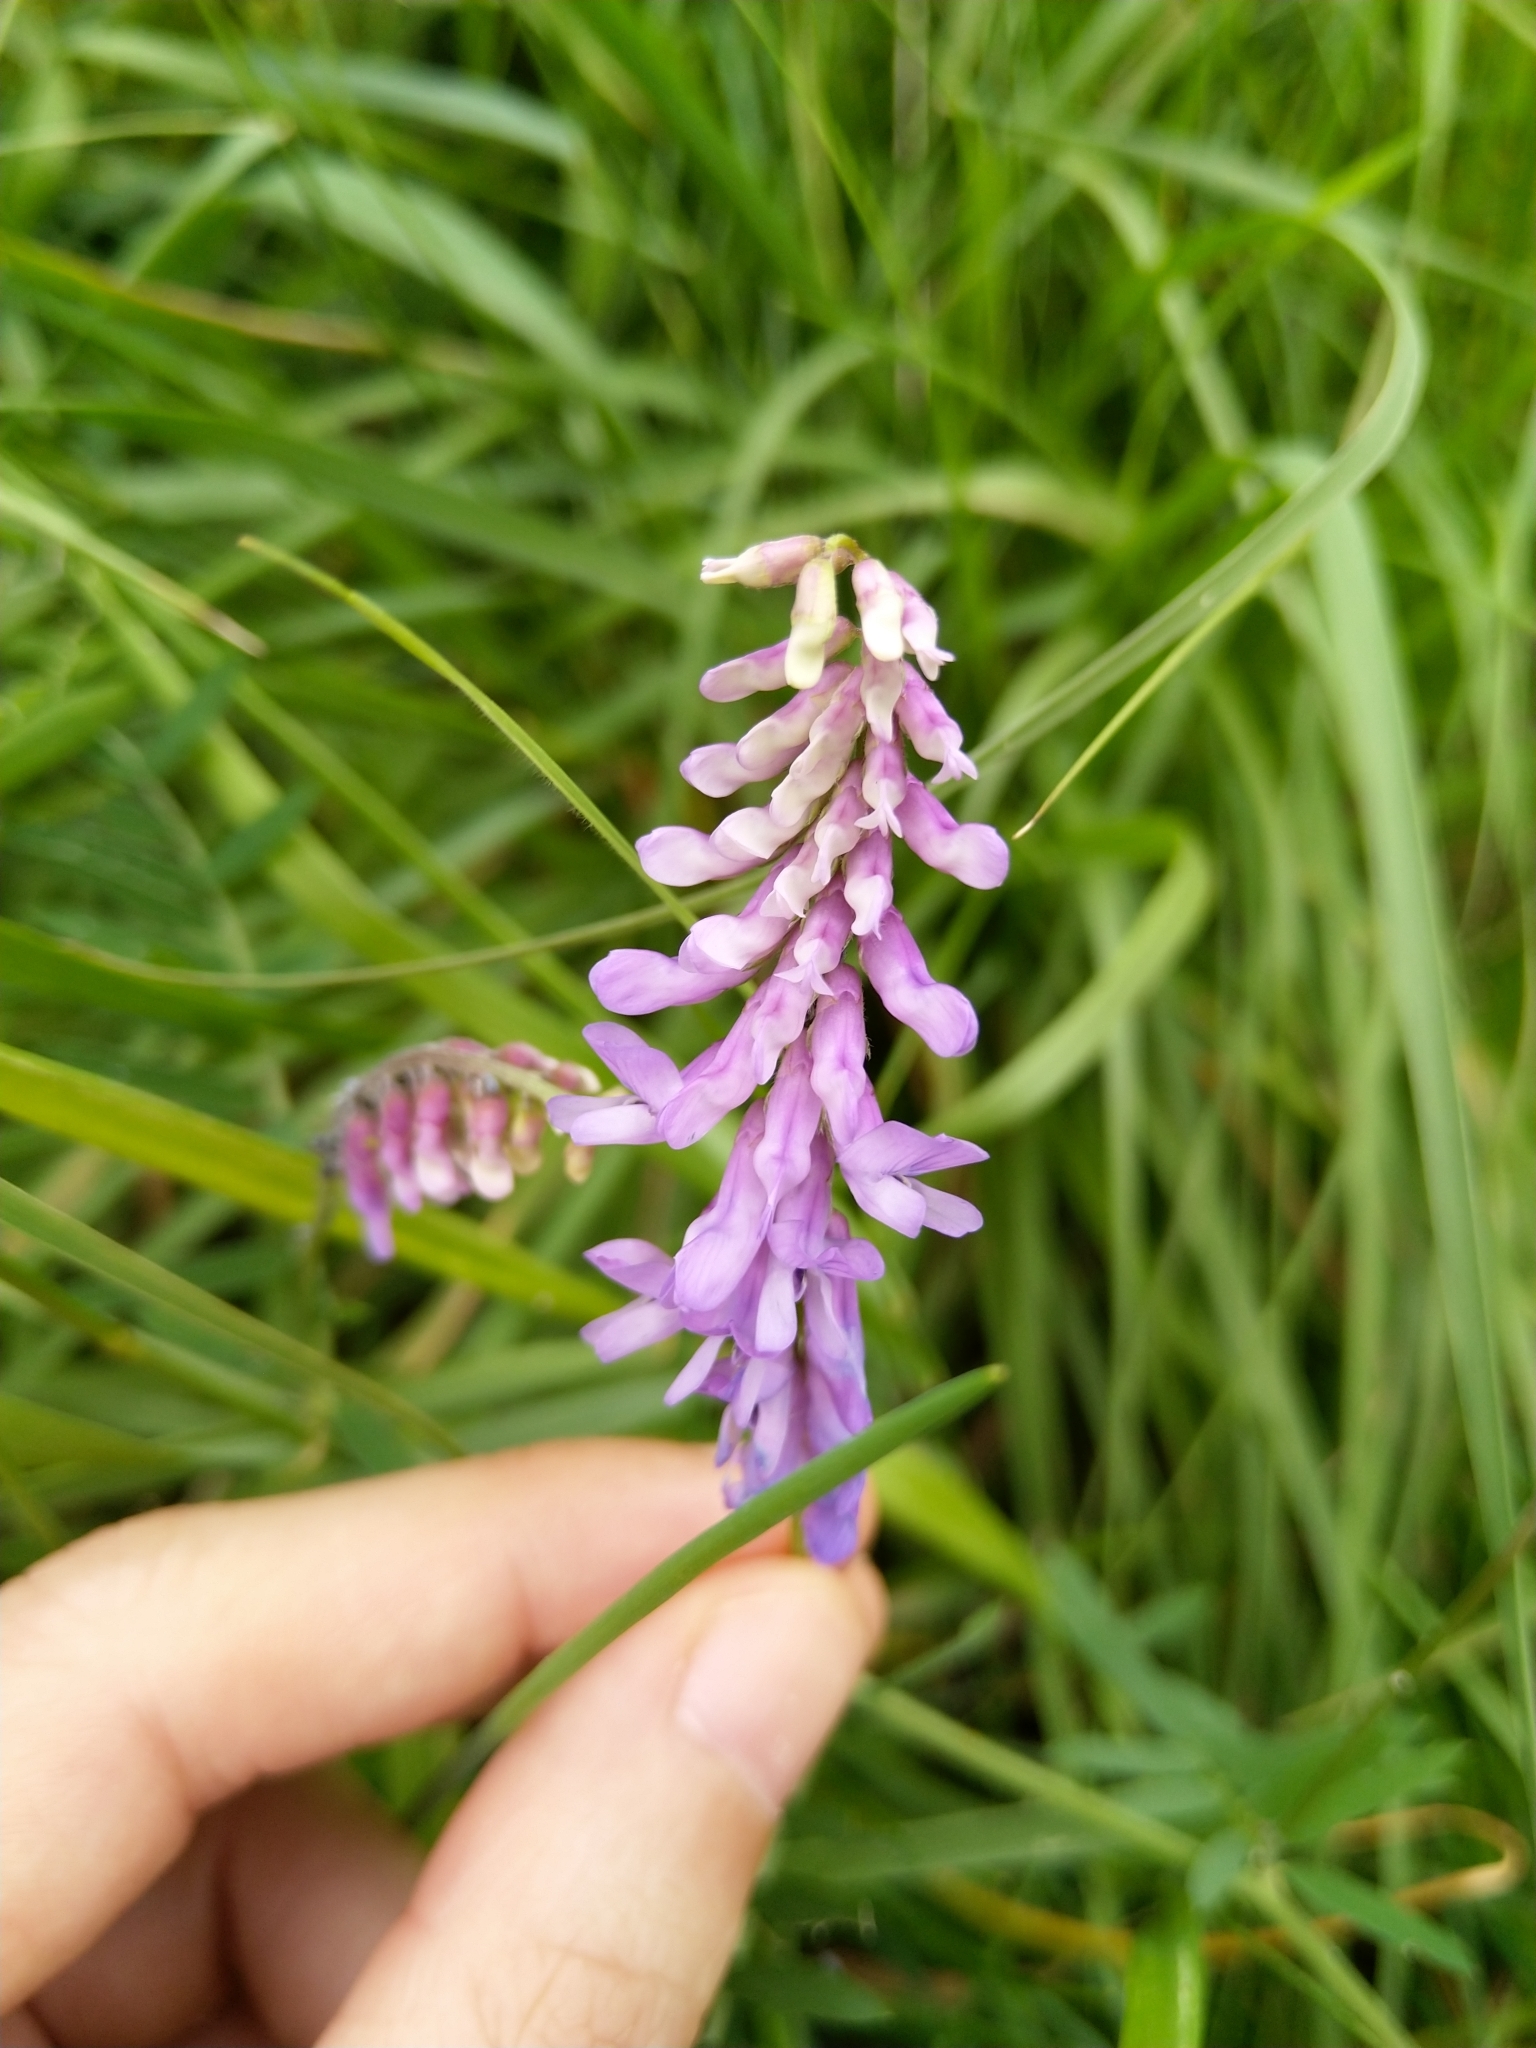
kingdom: Plantae
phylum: Tracheophyta
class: Magnoliopsida
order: Fabales
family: Fabaceae
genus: Vicia
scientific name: Vicia cracca
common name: Bird vetch
